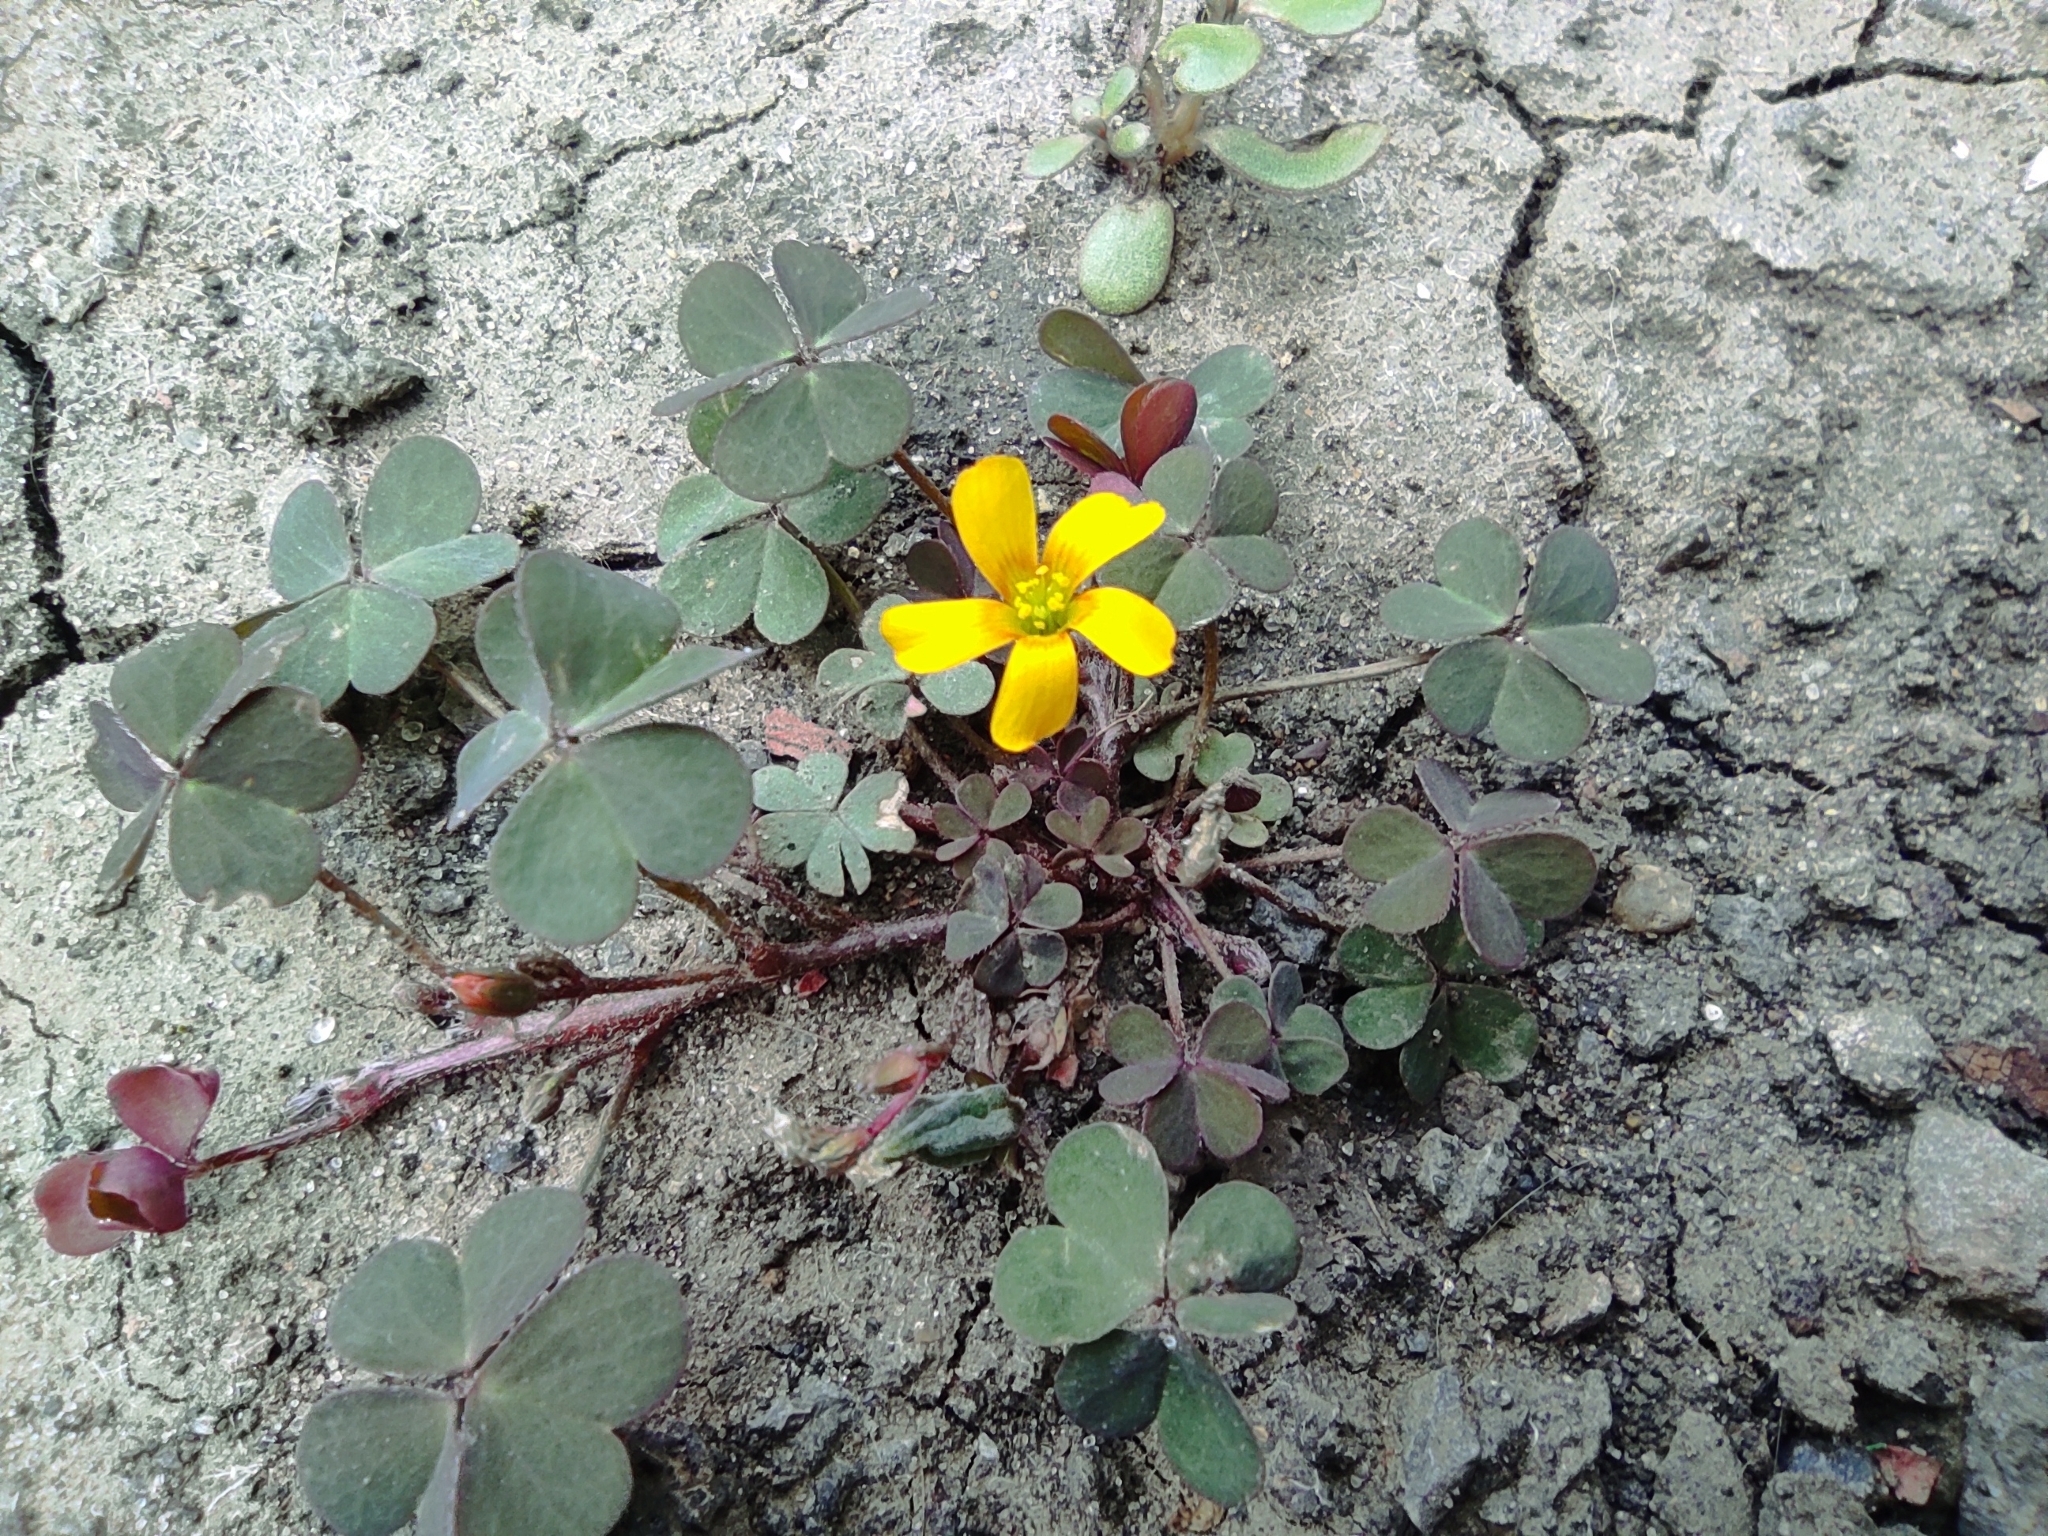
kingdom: Plantae
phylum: Tracheophyta
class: Magnoliopsida
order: Oxalidales
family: Oxalidaceae
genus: Oxalis
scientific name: Oxalis corniculata
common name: Procumbent yellow-sorrel
